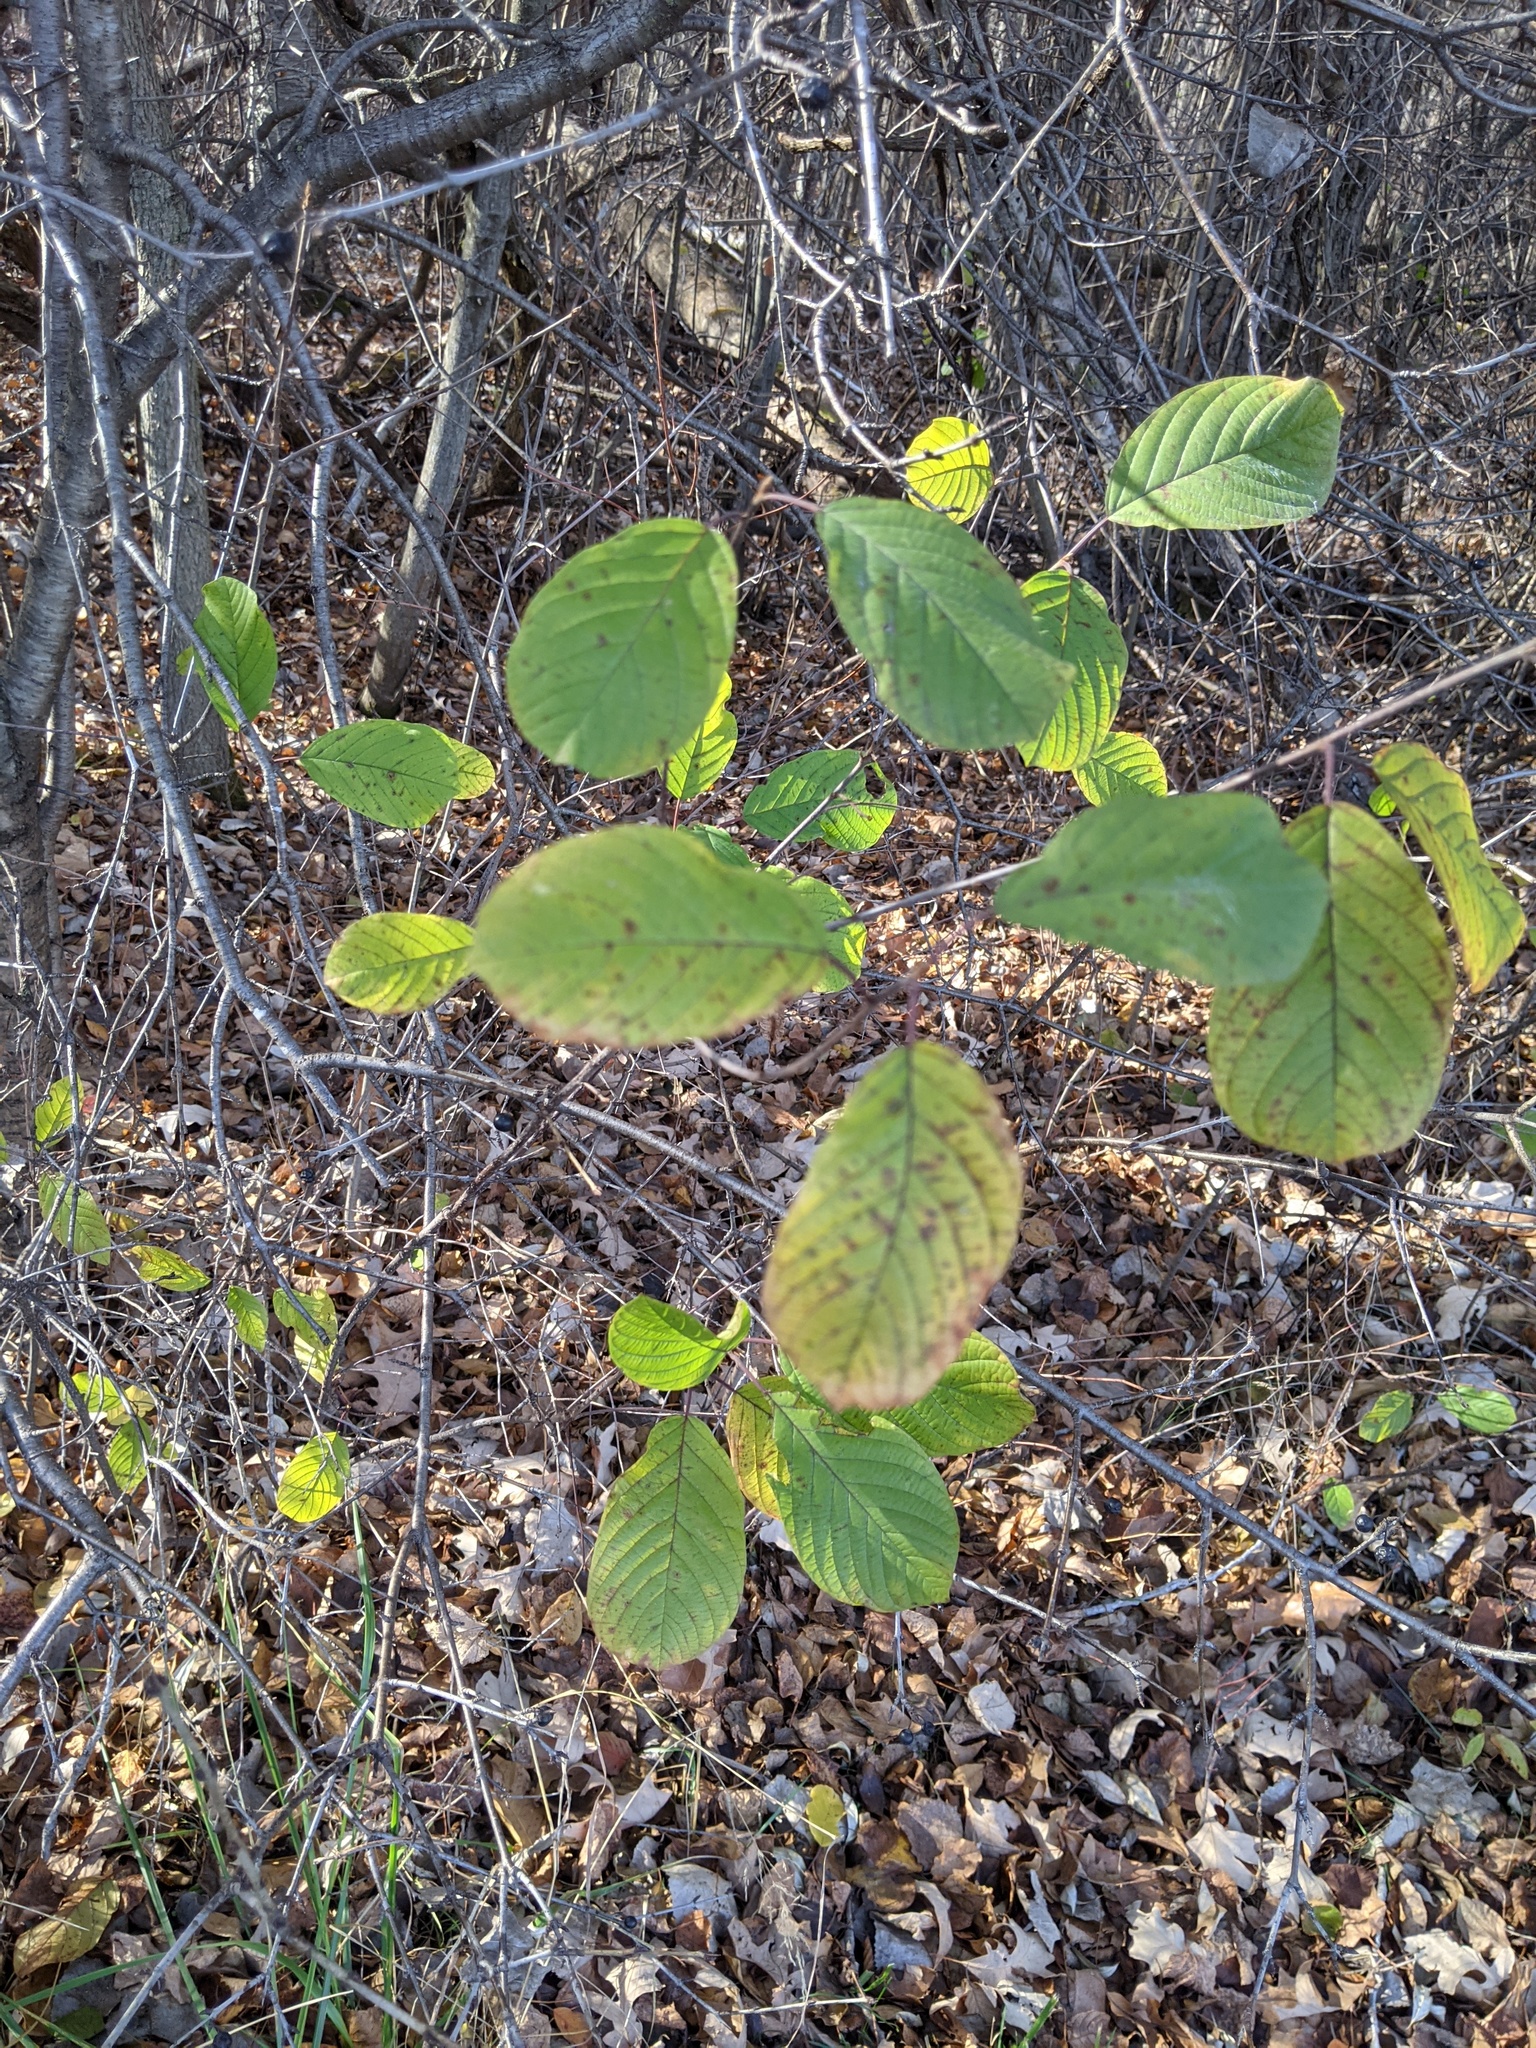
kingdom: Plantae
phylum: Tracheophyta
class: Magnoliopsida
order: Rosales
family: Rhamnaceae
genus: Frangula
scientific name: Frangula alnus
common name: Alder buckthorn
